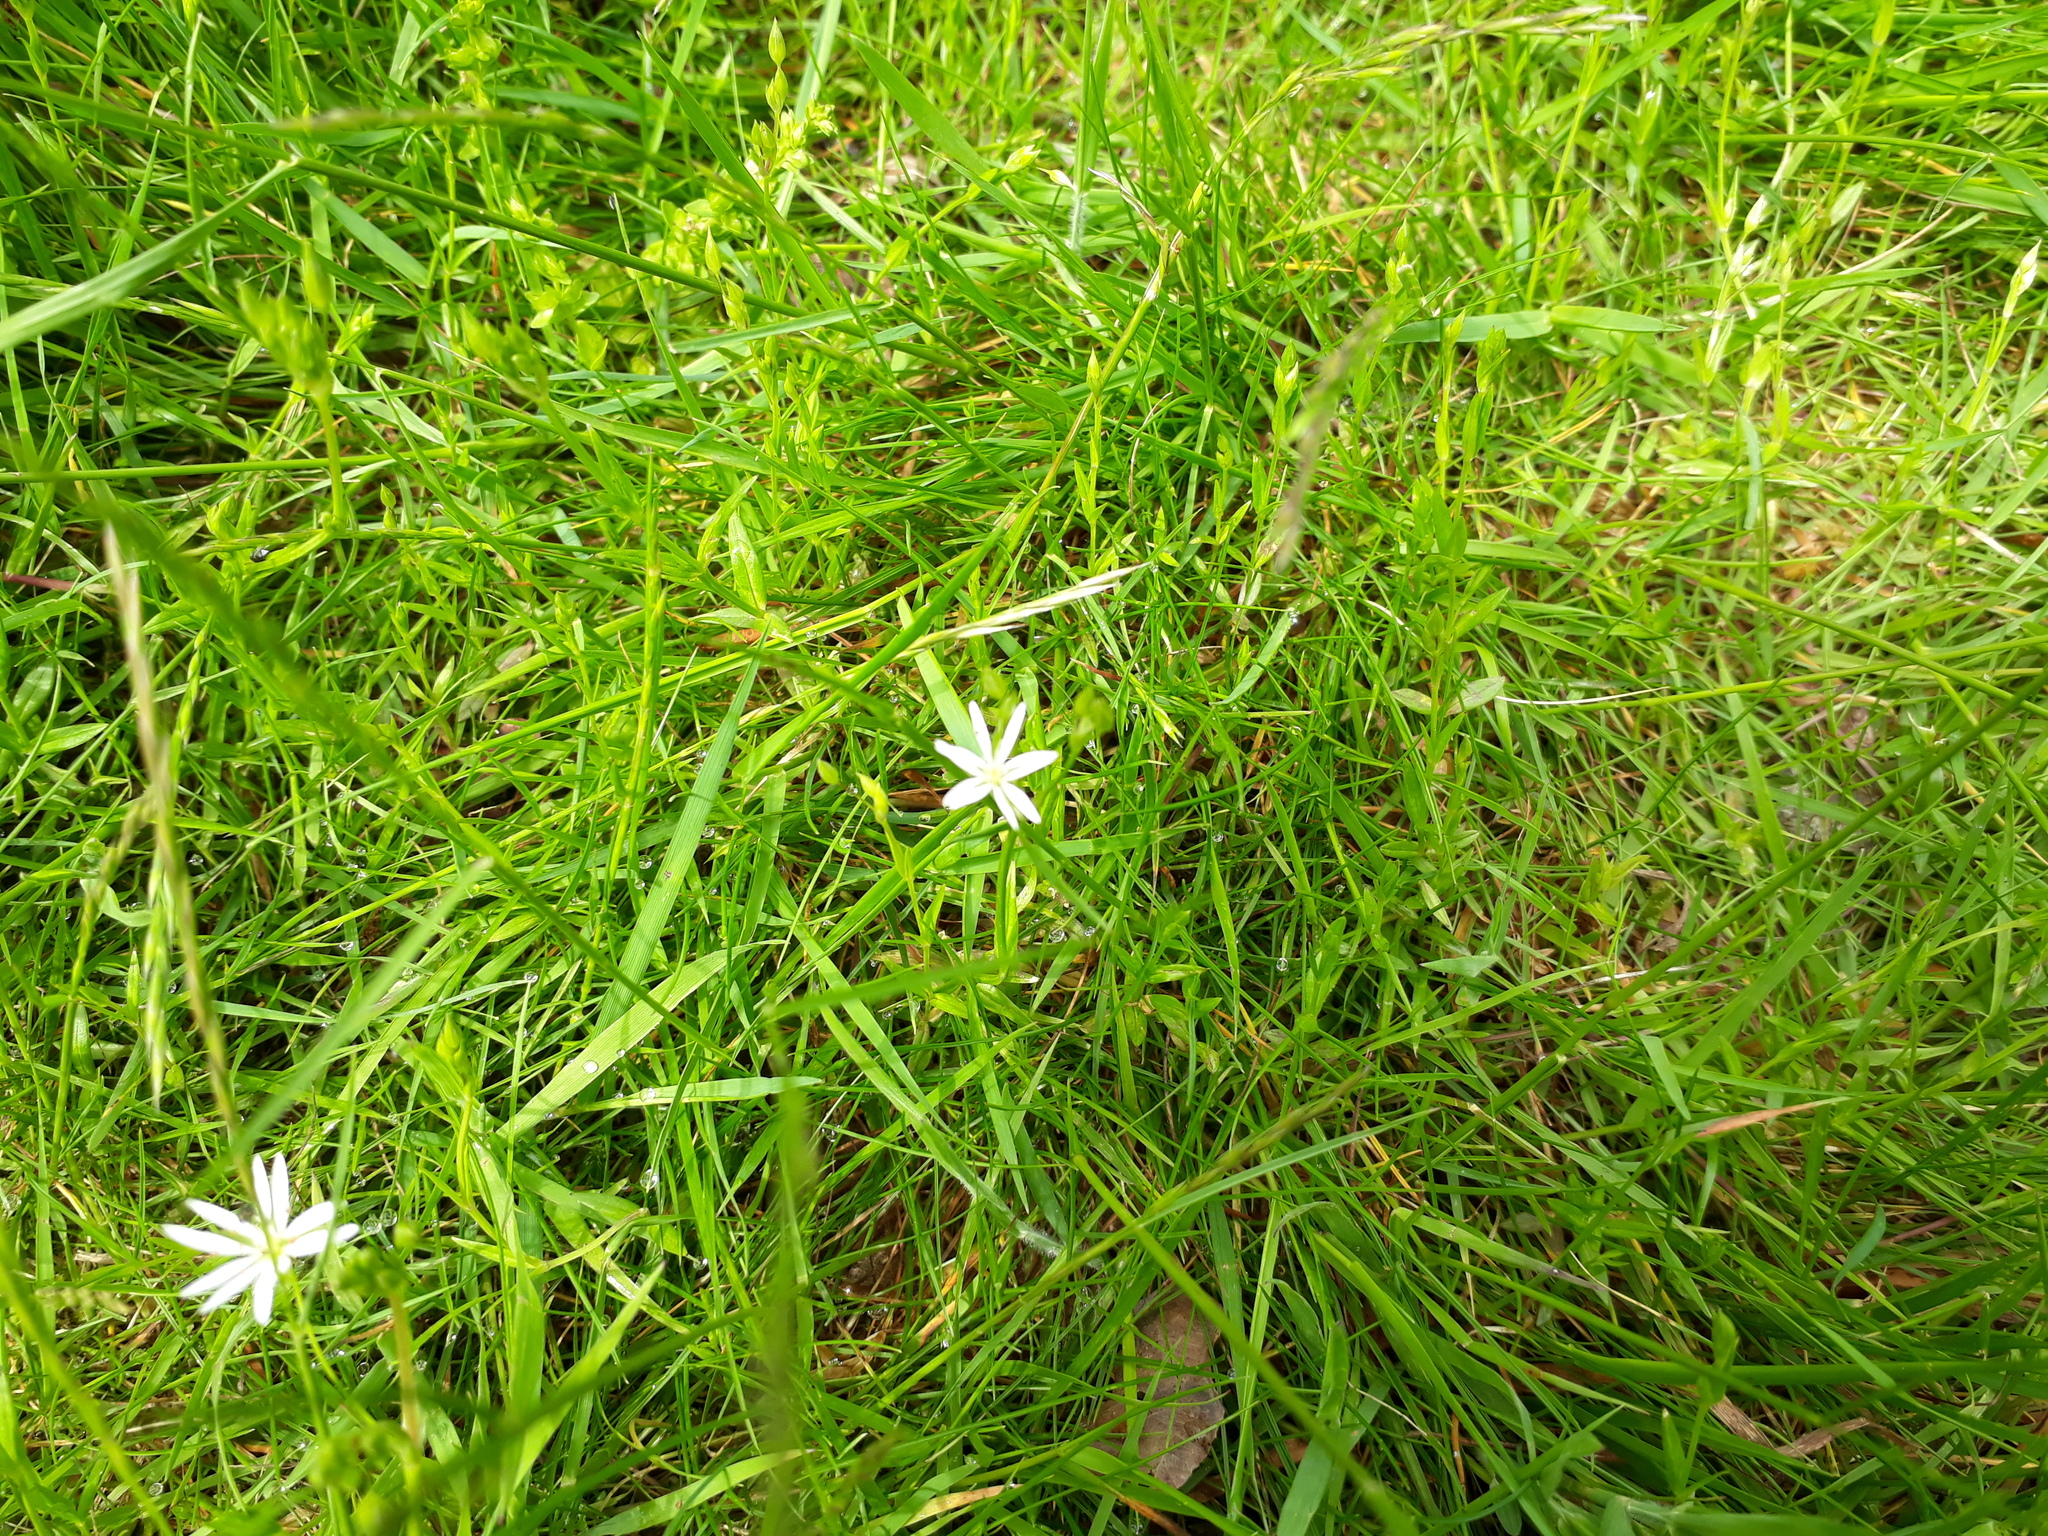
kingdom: Plantae
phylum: Tracheophyta
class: Magnoliopsida
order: Caryophyllales
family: Caryophyllaceae
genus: Stellaria
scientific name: Stellaria graminea
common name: Grass-like starwort
